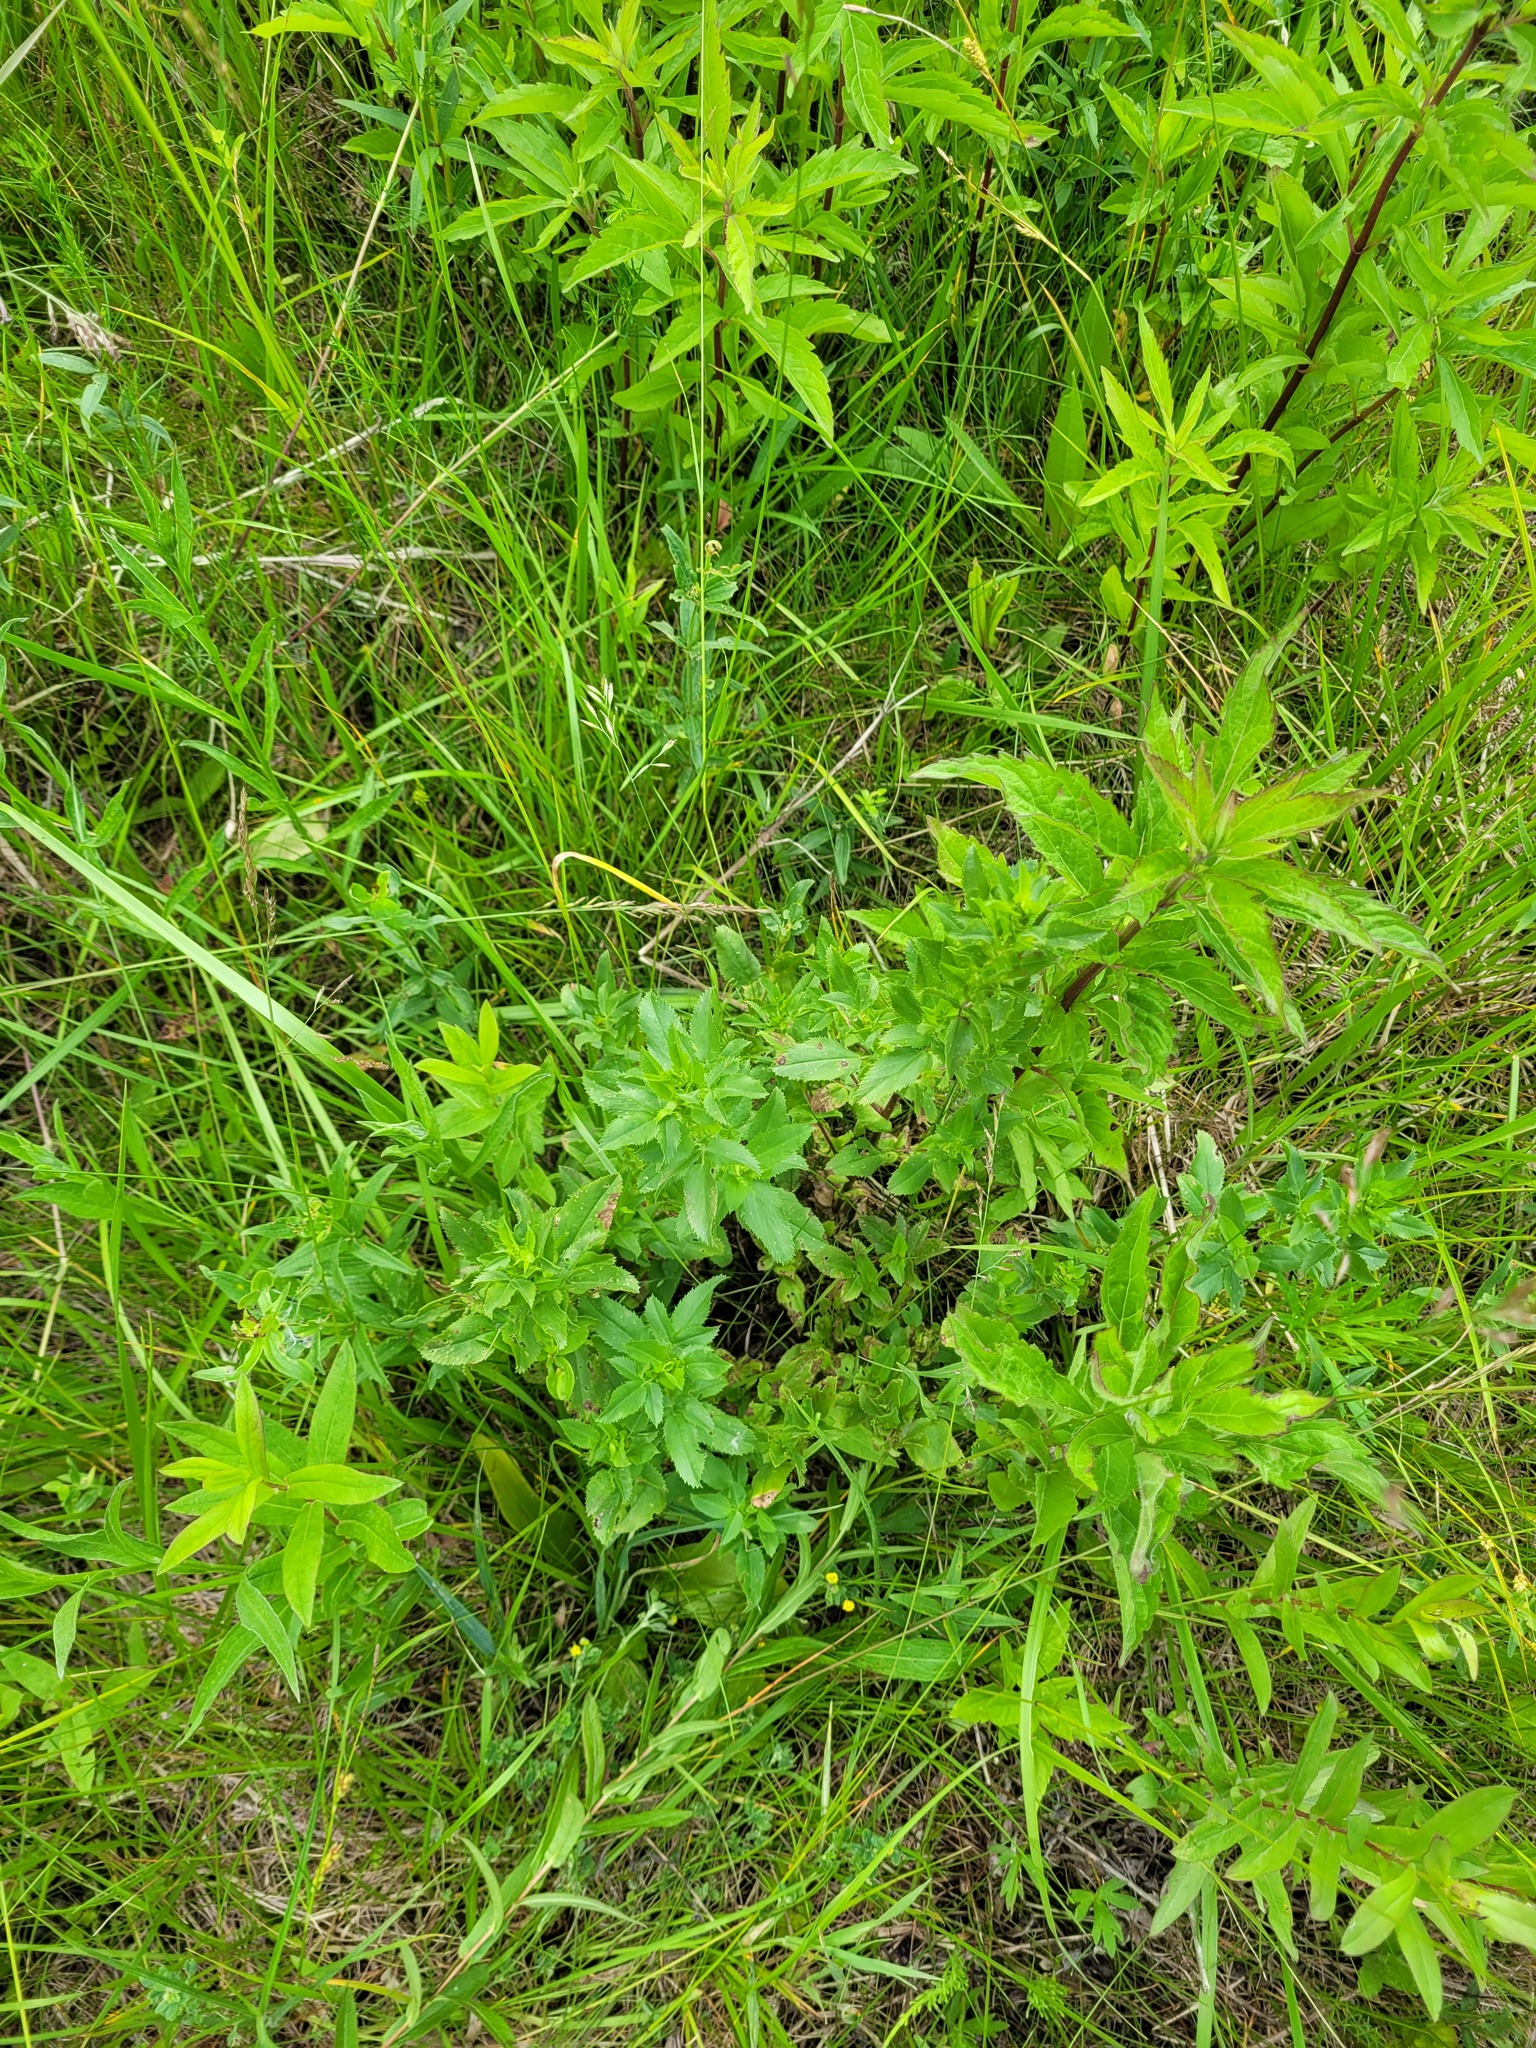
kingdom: Plantae
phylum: Tracheophyta
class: Magnoliopsida
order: Fabales
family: Fabaceae
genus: Ononis
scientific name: Ononis arvensis
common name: Field restharrow
